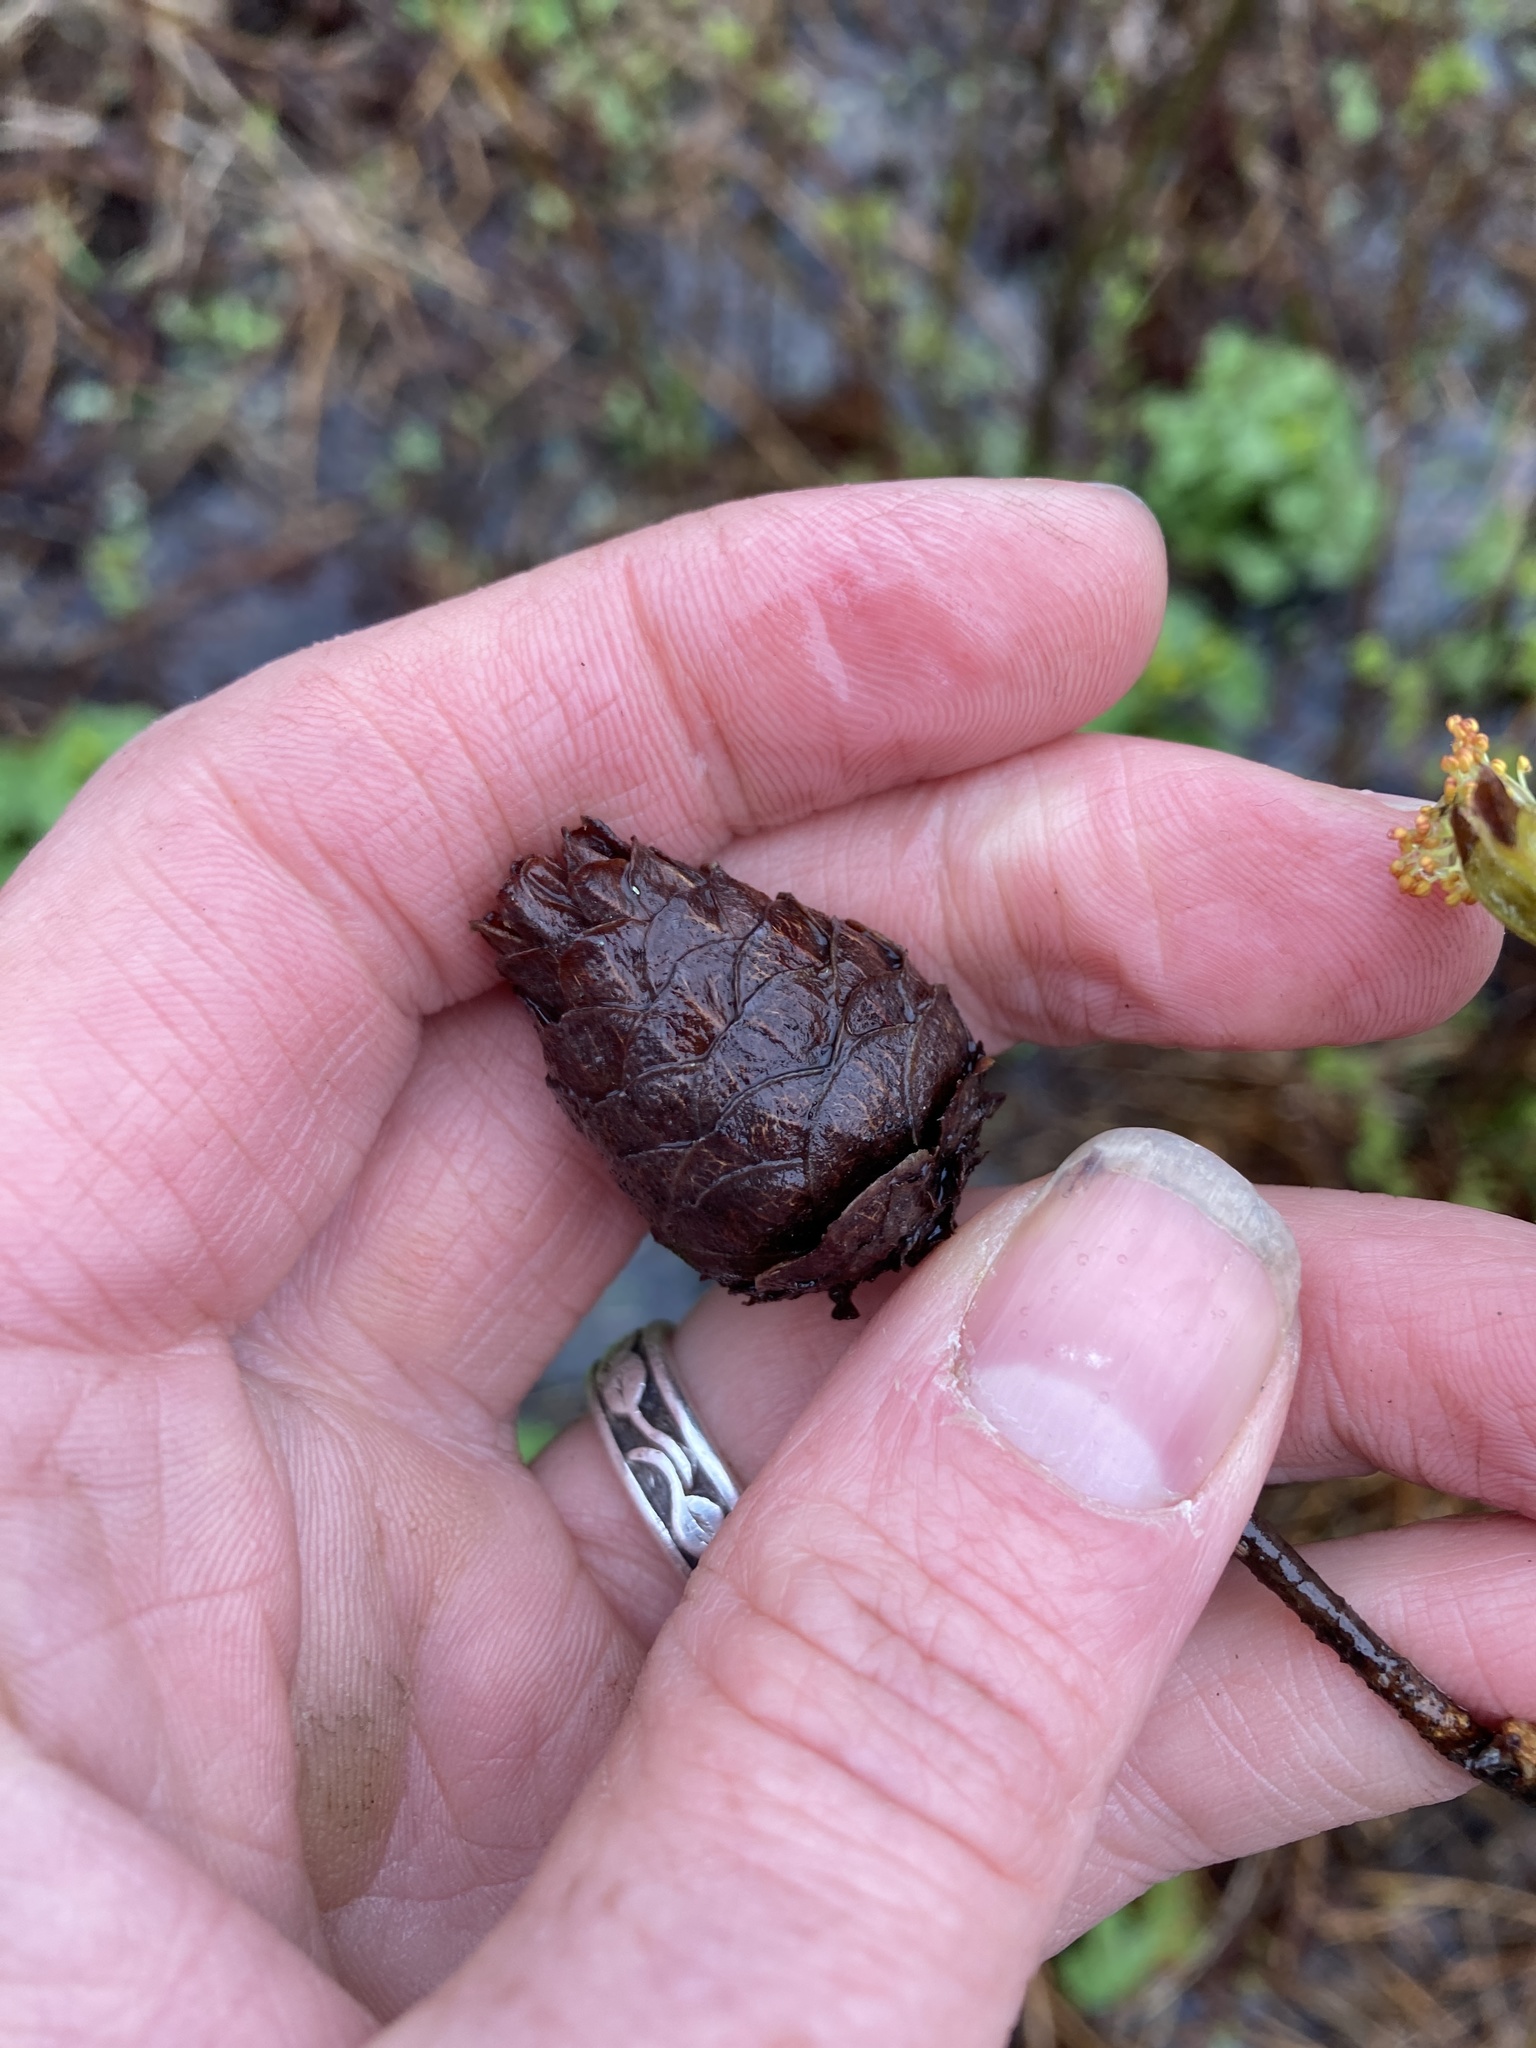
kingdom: Animalia
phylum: Arthropoda
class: Insecta
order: Diptera
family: Cecidomyiidae
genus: Rabdophaga
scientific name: Rabdophaga strobiloides
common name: Willow pinecone gall midge
